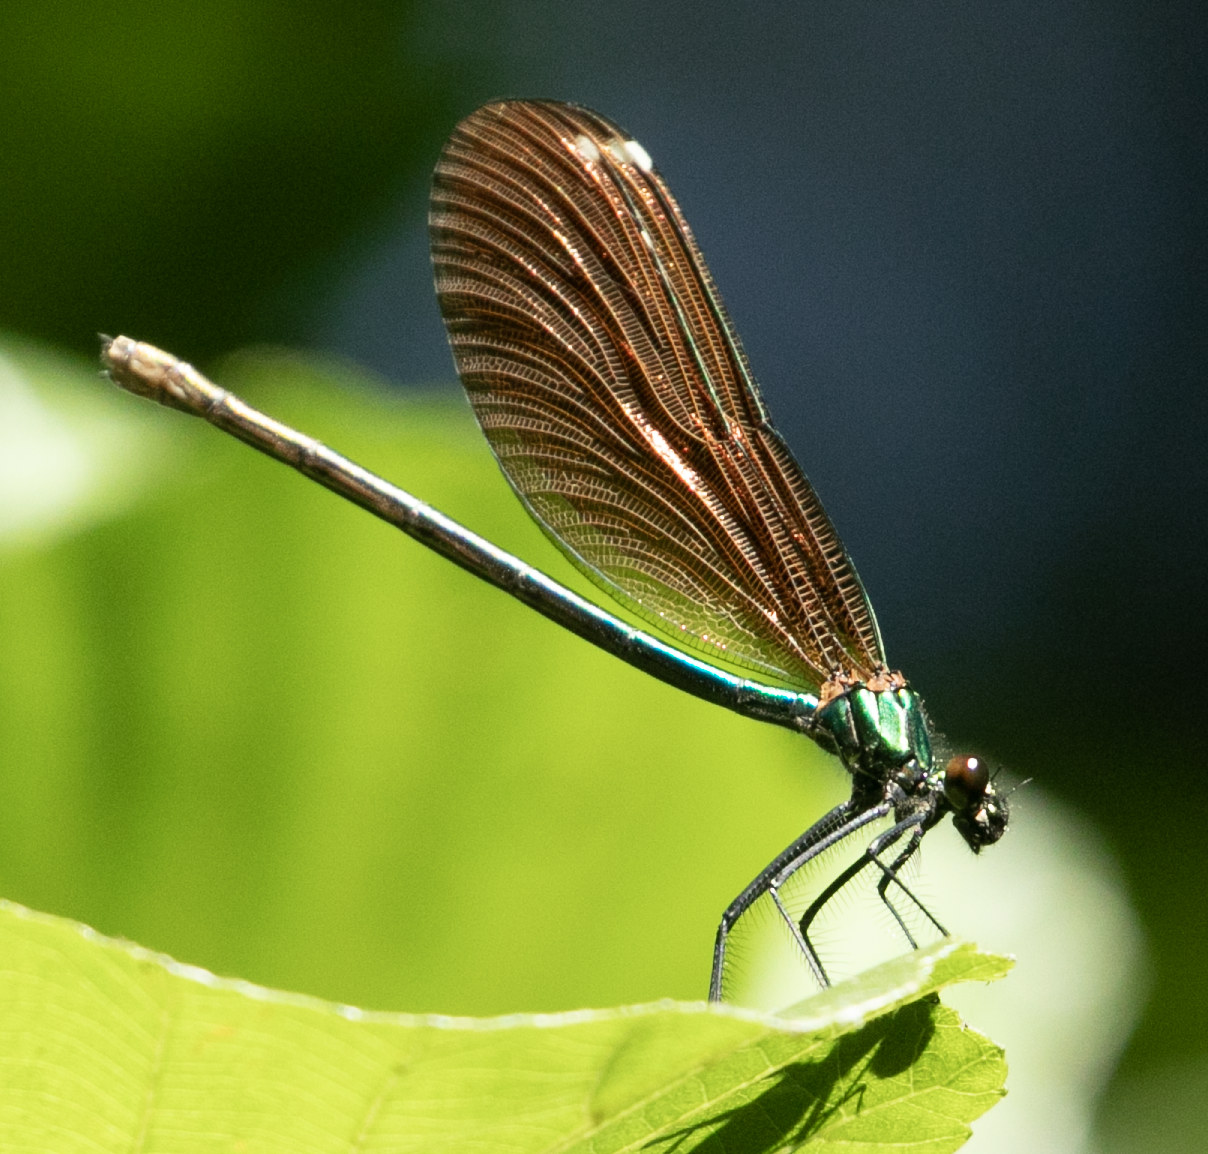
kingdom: Animalia
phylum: Arthropoda
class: Insecta
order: Odonata
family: Calopterygidae
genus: Calopteryx
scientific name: Calopteryx virgo
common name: Beautiful demoiselle
